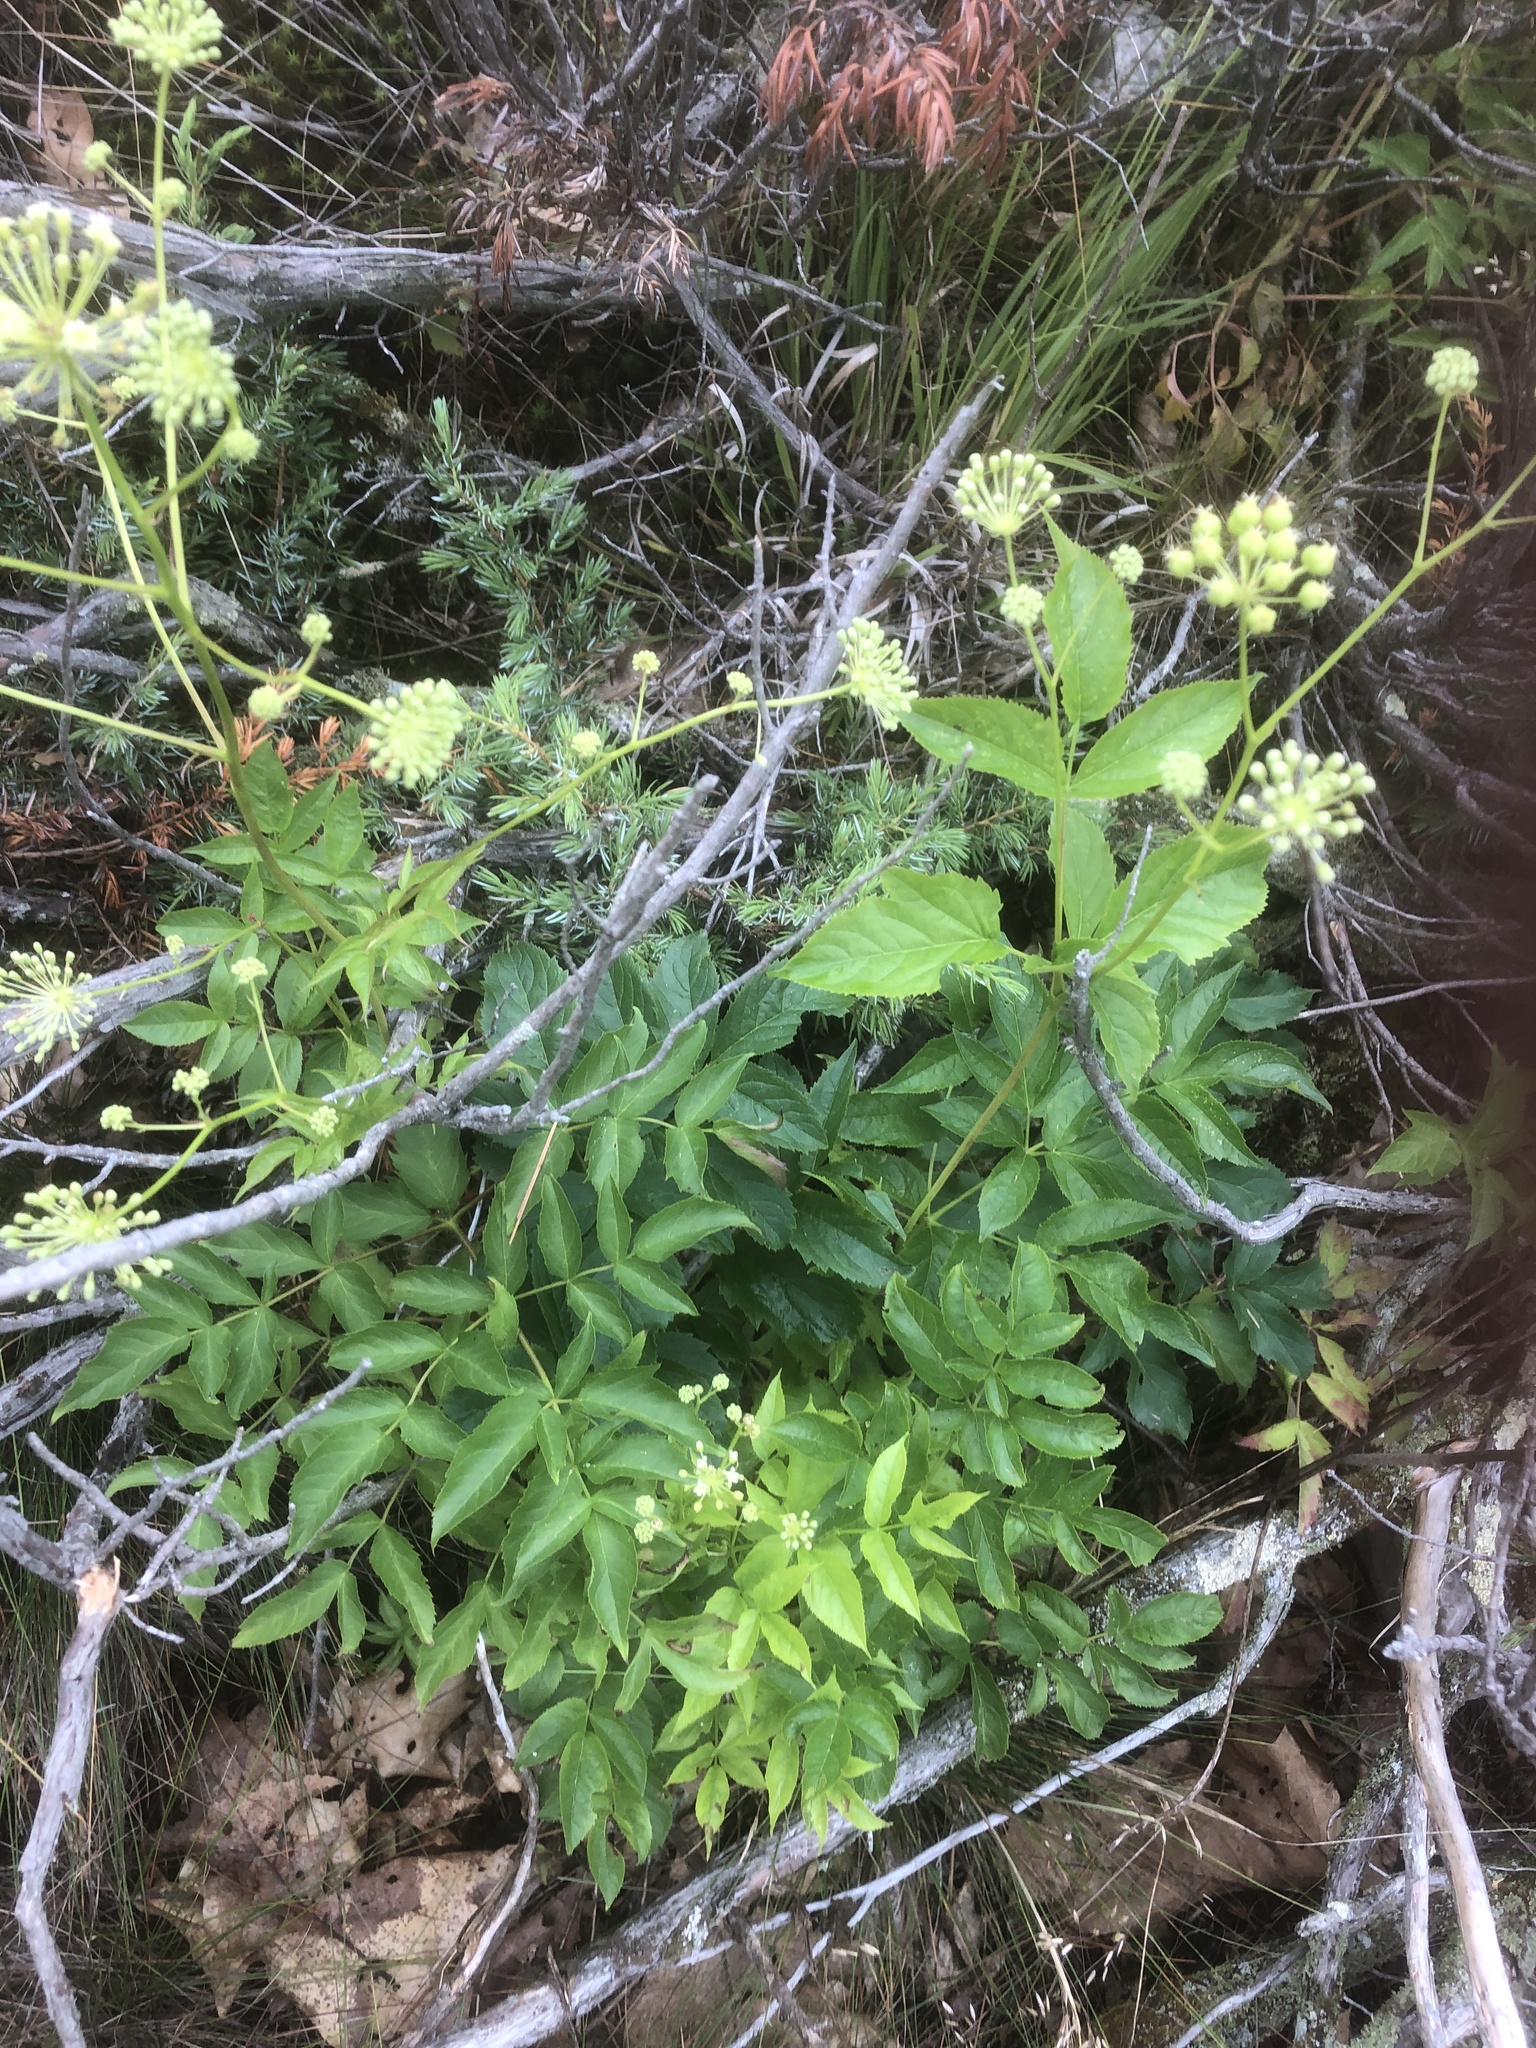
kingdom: Plantae
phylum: Tracheophyta
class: Magnoliopsida
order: Apiales
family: Araliaceae
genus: Aralia
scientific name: Aralia hispida
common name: Bristly sarsaparilla
